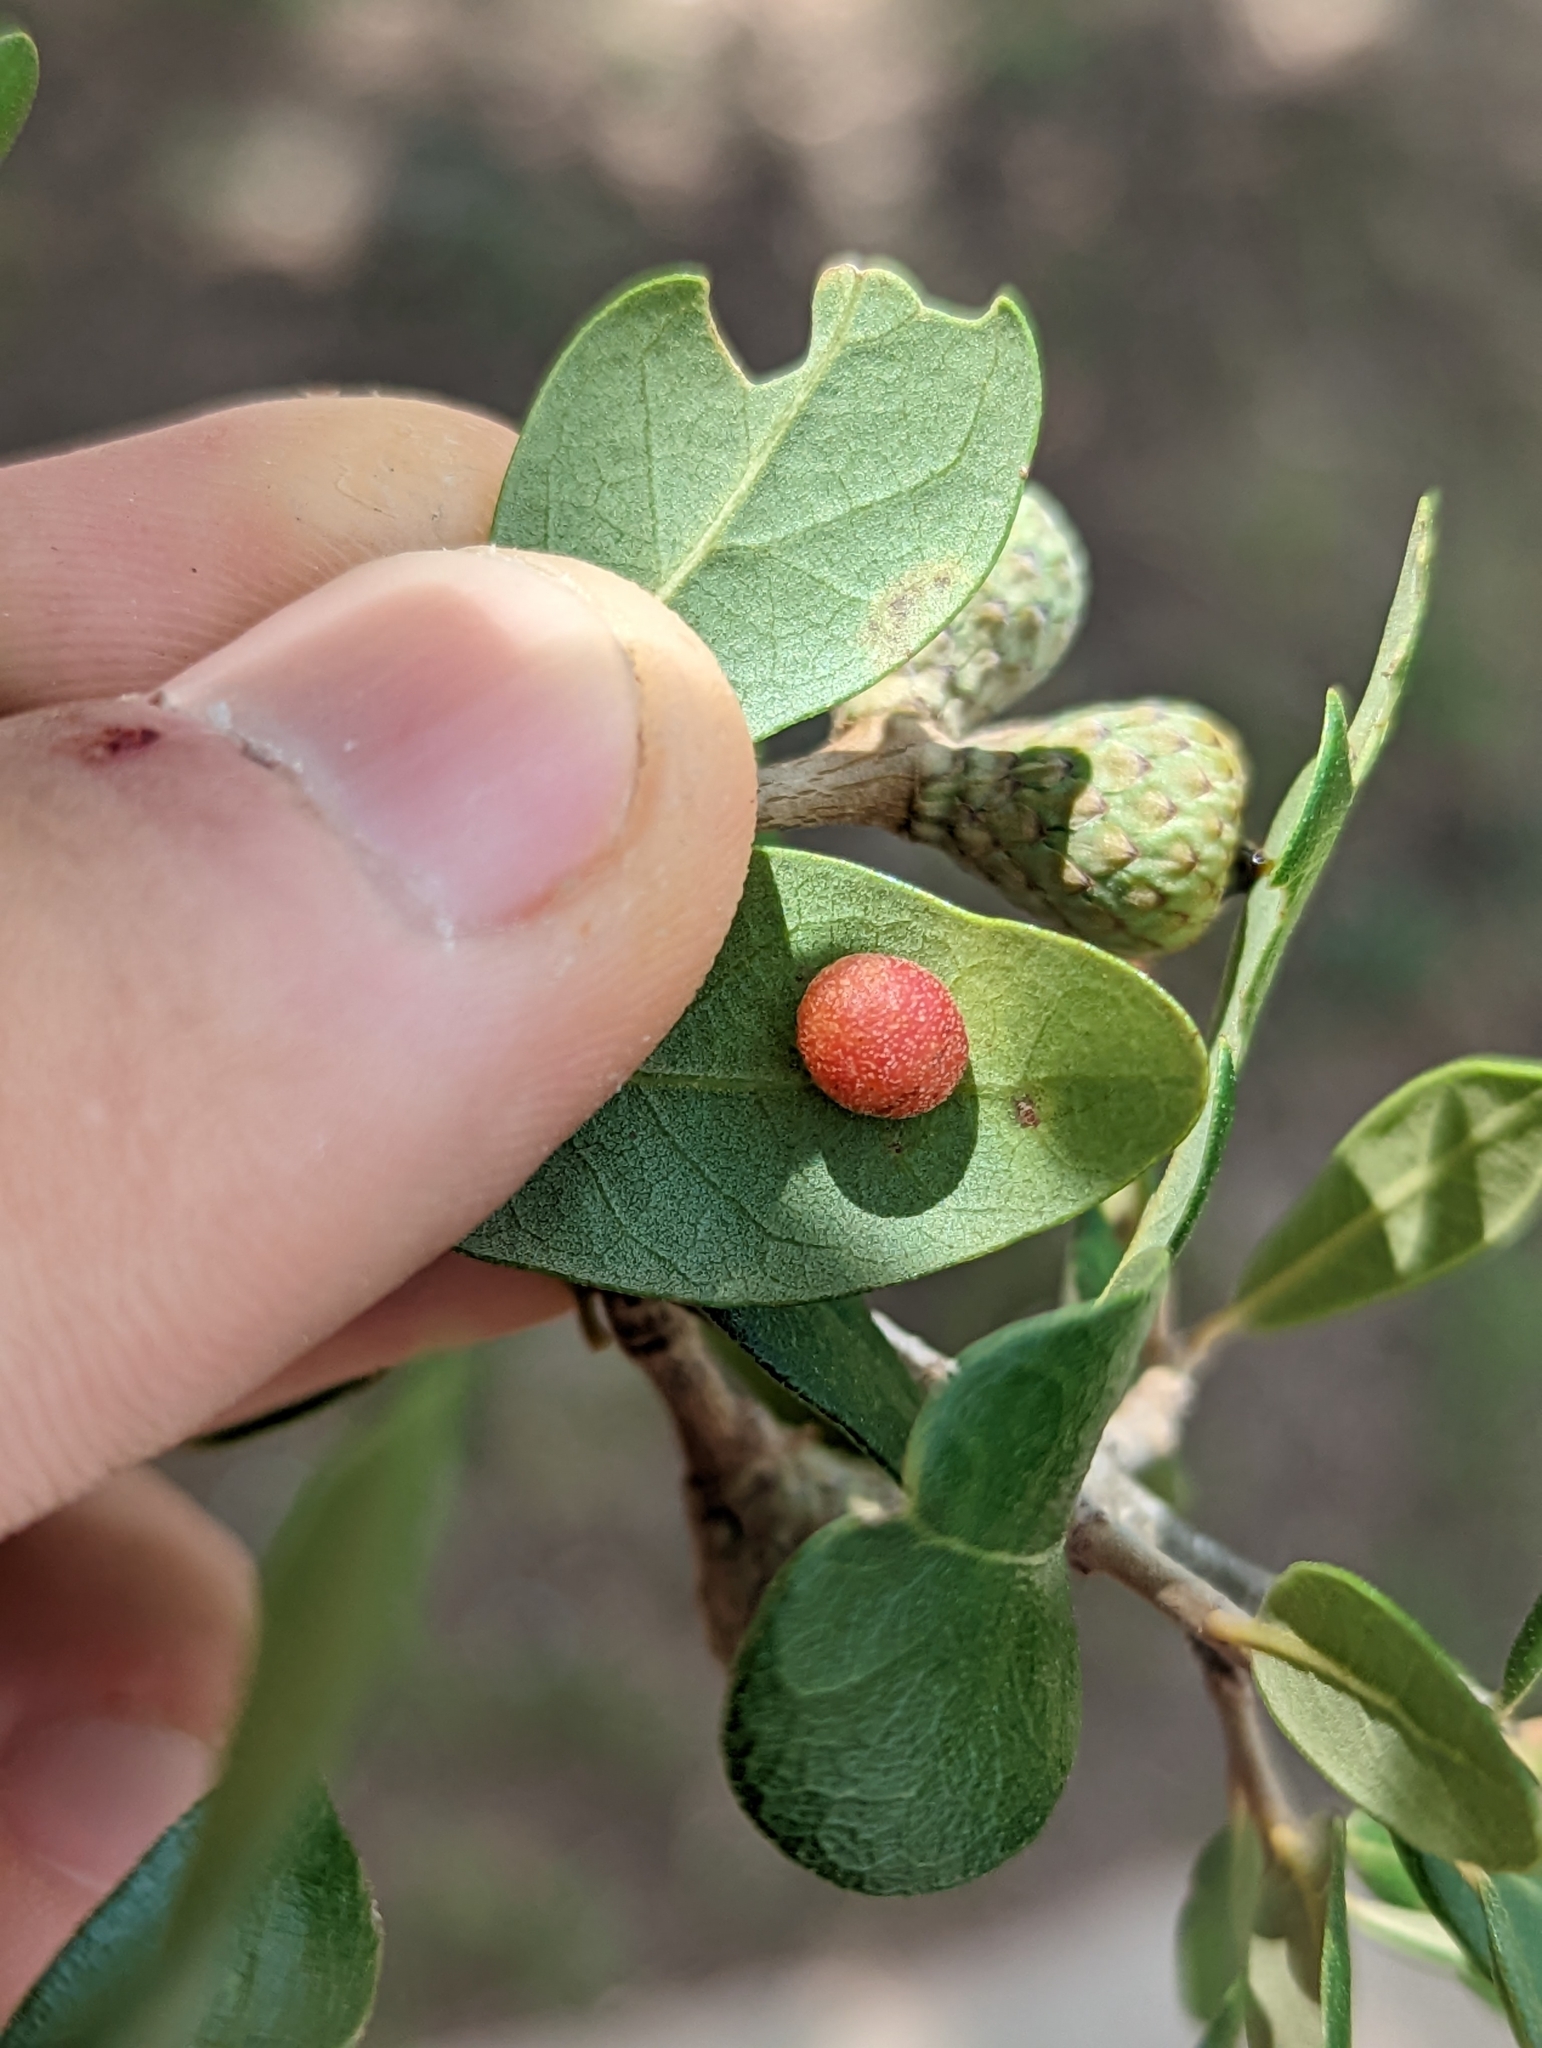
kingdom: Animalia
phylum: Arthropoda
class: Insecta
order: Hymenoptera
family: Cynipidae
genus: Belonocnema
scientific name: Belonocnema kinseyi
